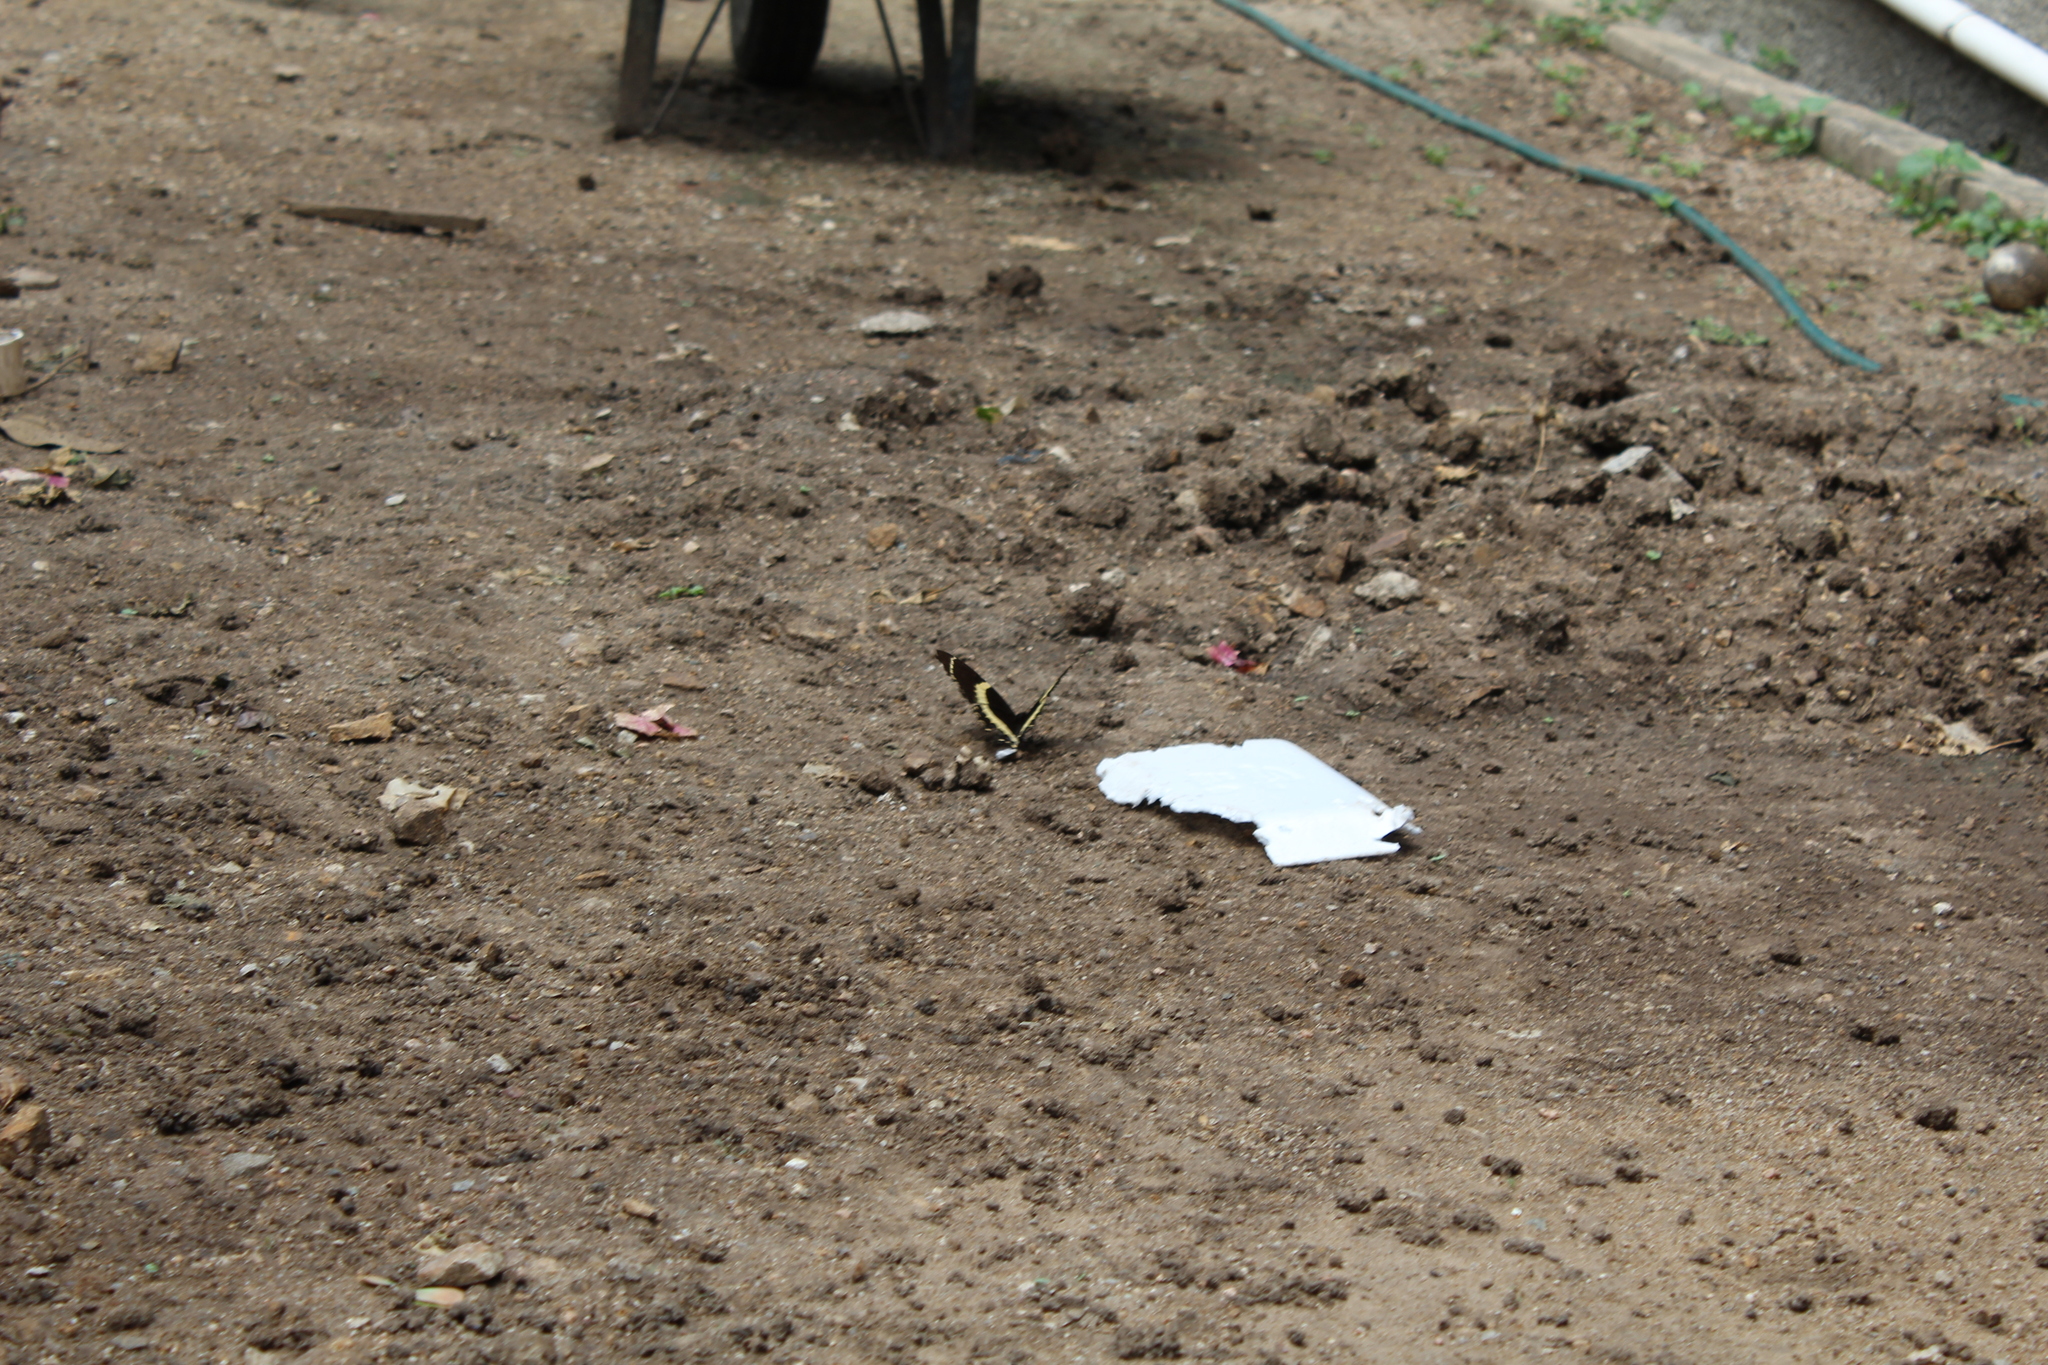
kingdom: Animalia
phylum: Arthropoda
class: Insecta
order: Lepidoptera
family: Papilionidae
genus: Papilio
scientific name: Papilio garamas
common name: Magnificent swallowtail
